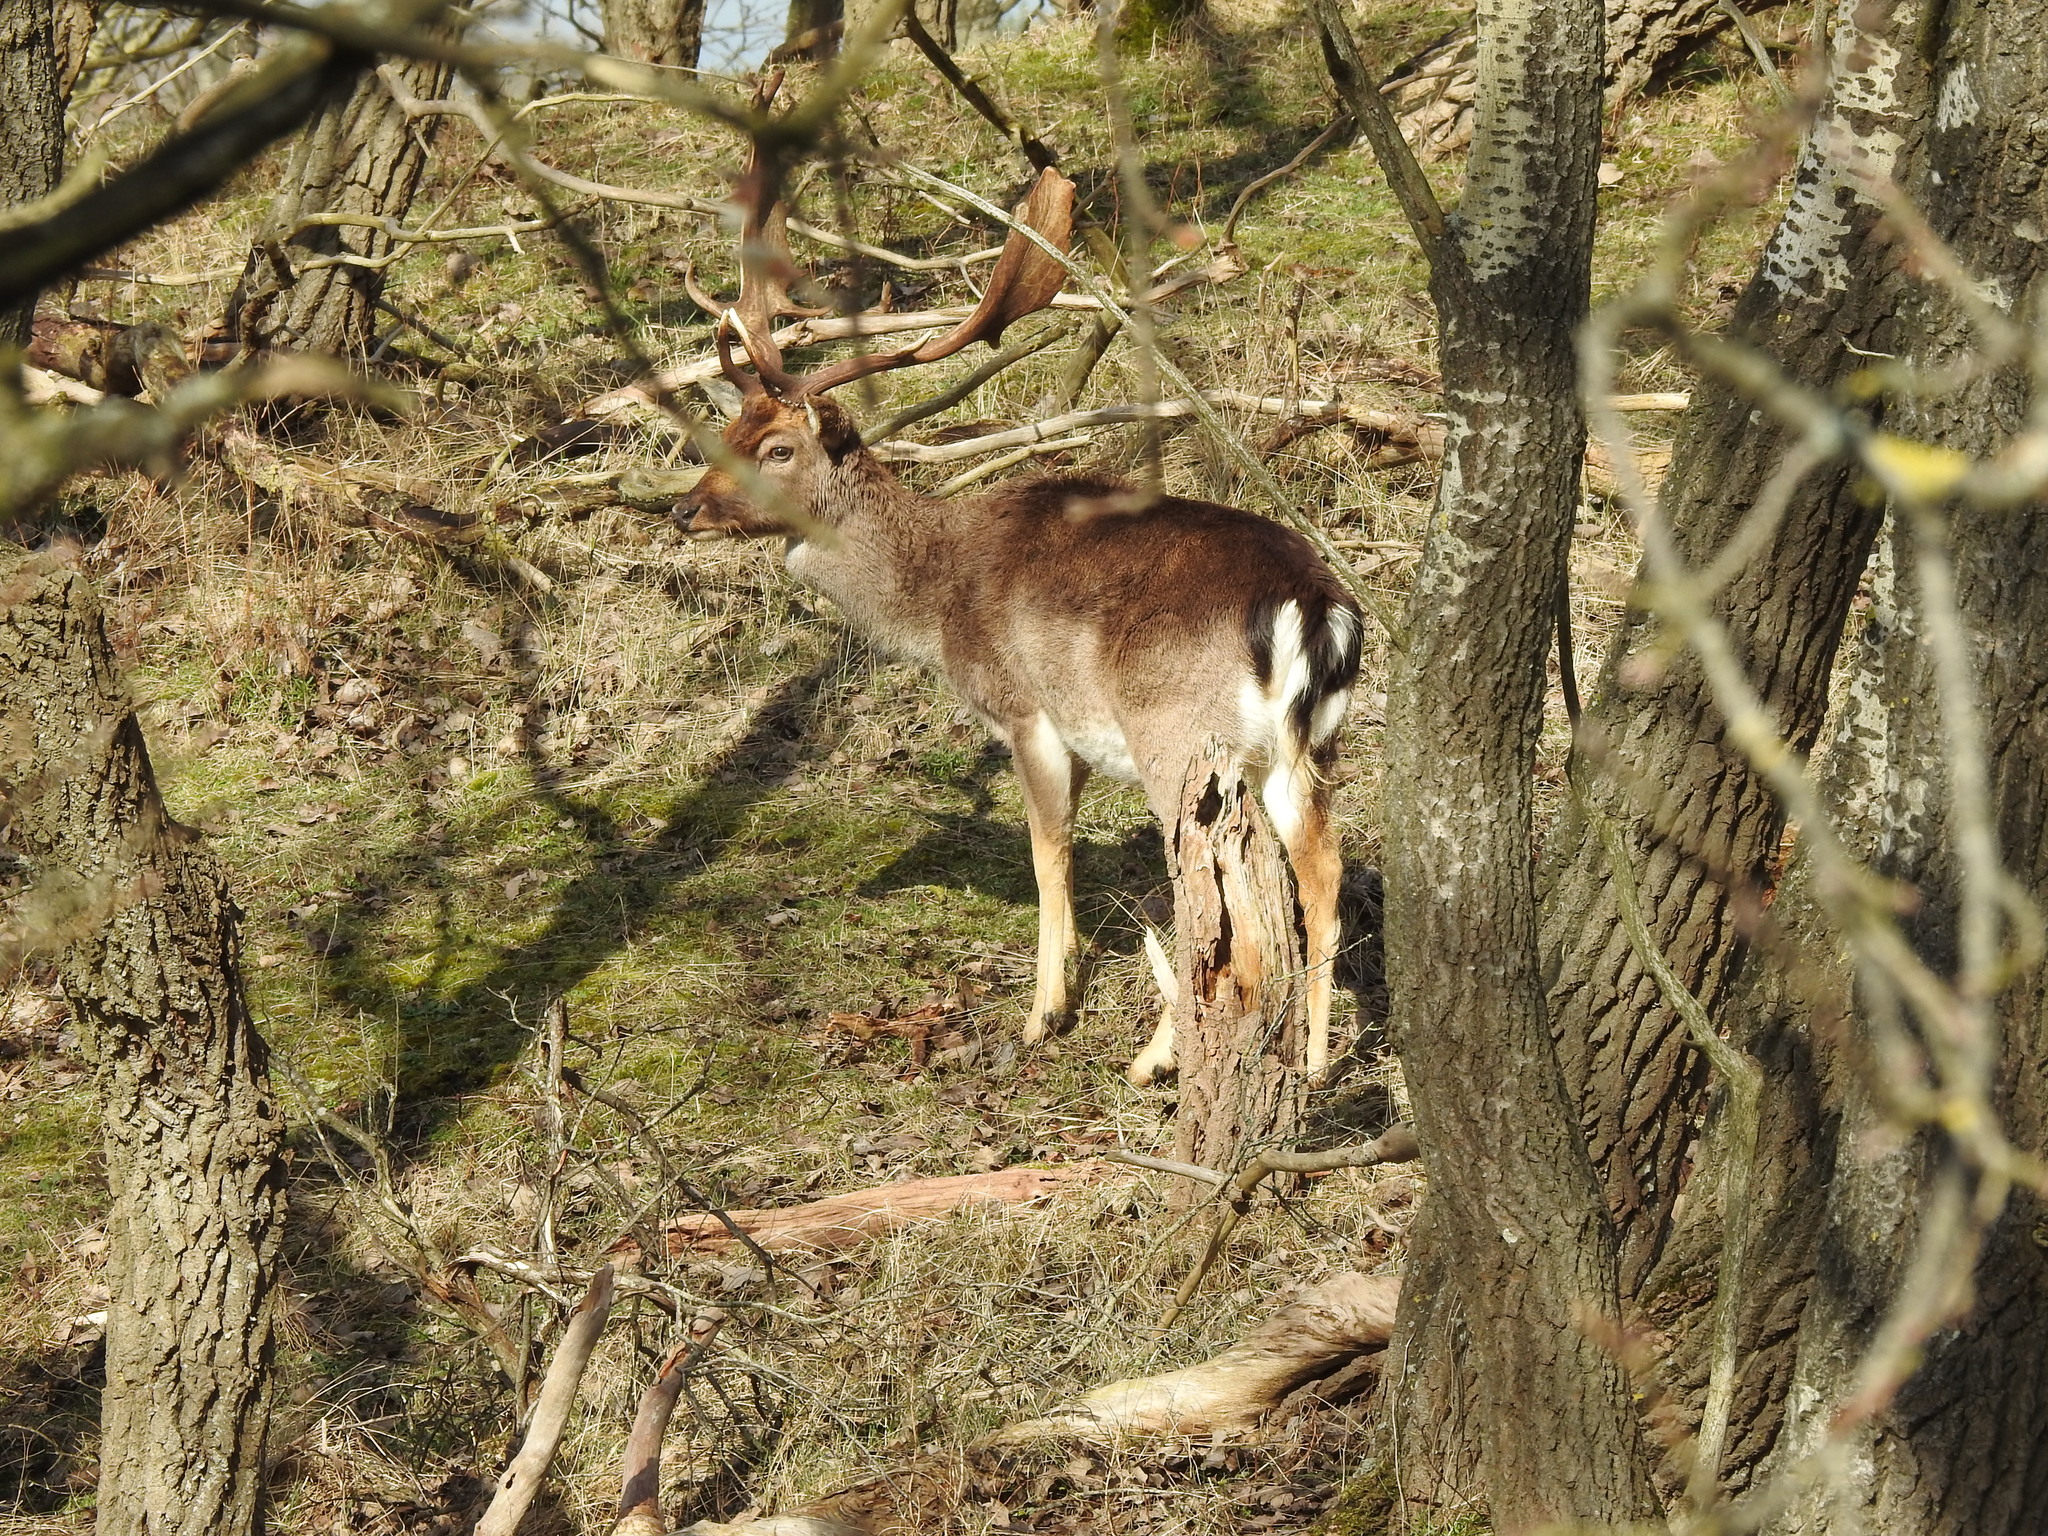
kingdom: Animalia
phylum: Chordata
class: Mammalia
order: Artiodactyla
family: Cervidae
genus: Dama
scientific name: Dama dama
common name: Fallow deer
